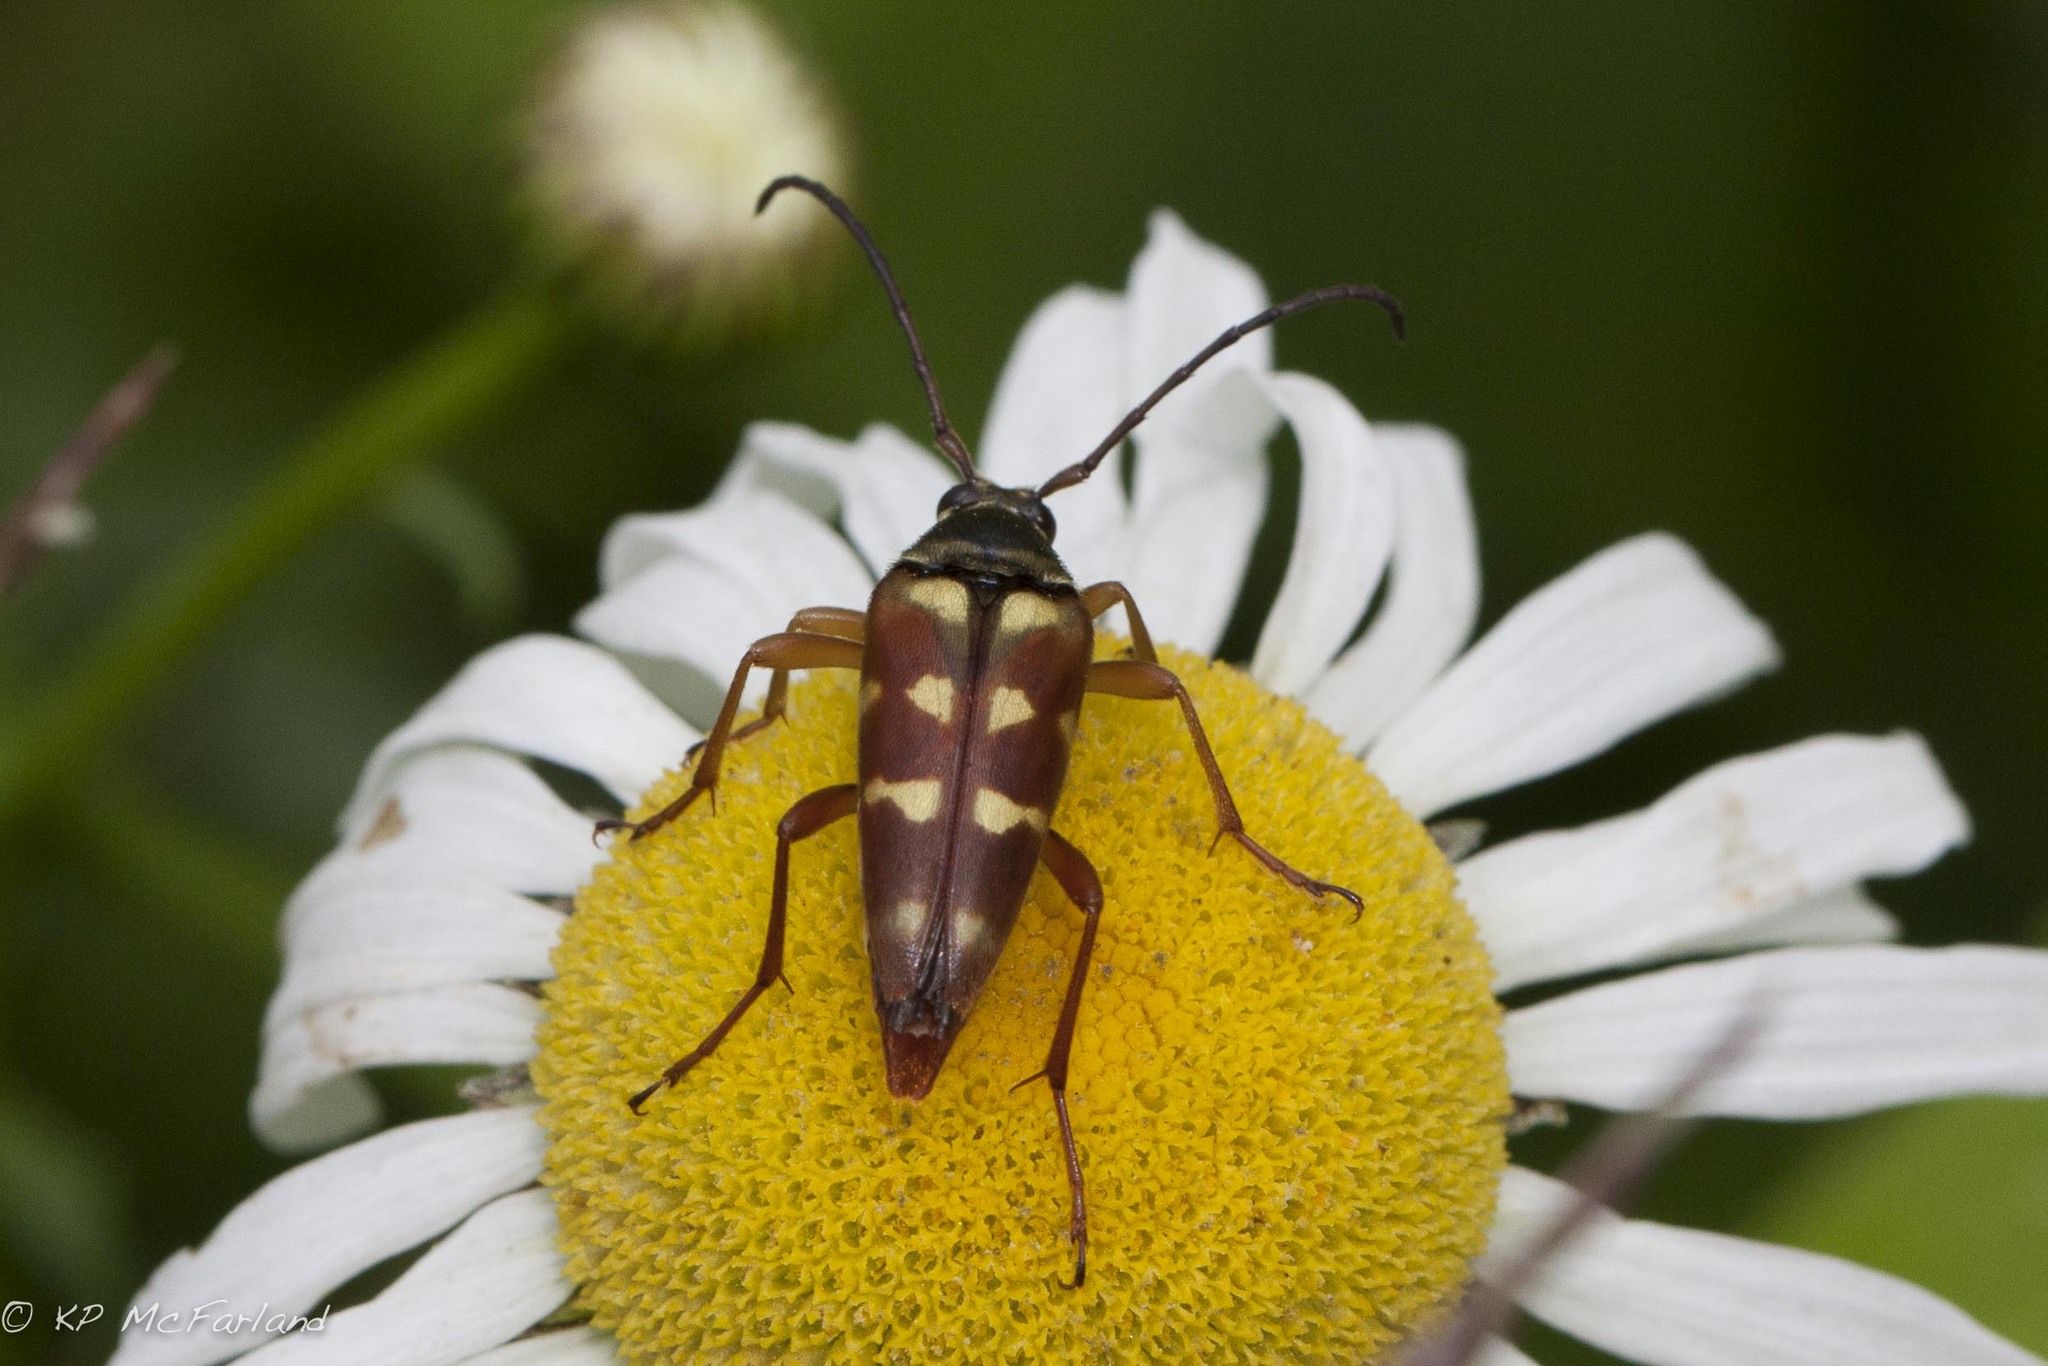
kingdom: Animalia
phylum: Arthropoda
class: Insecta
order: Coleoptera
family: Cerambycidae
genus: Typocerus
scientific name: Typocerus velutinus
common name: Banded longhorn beetle
